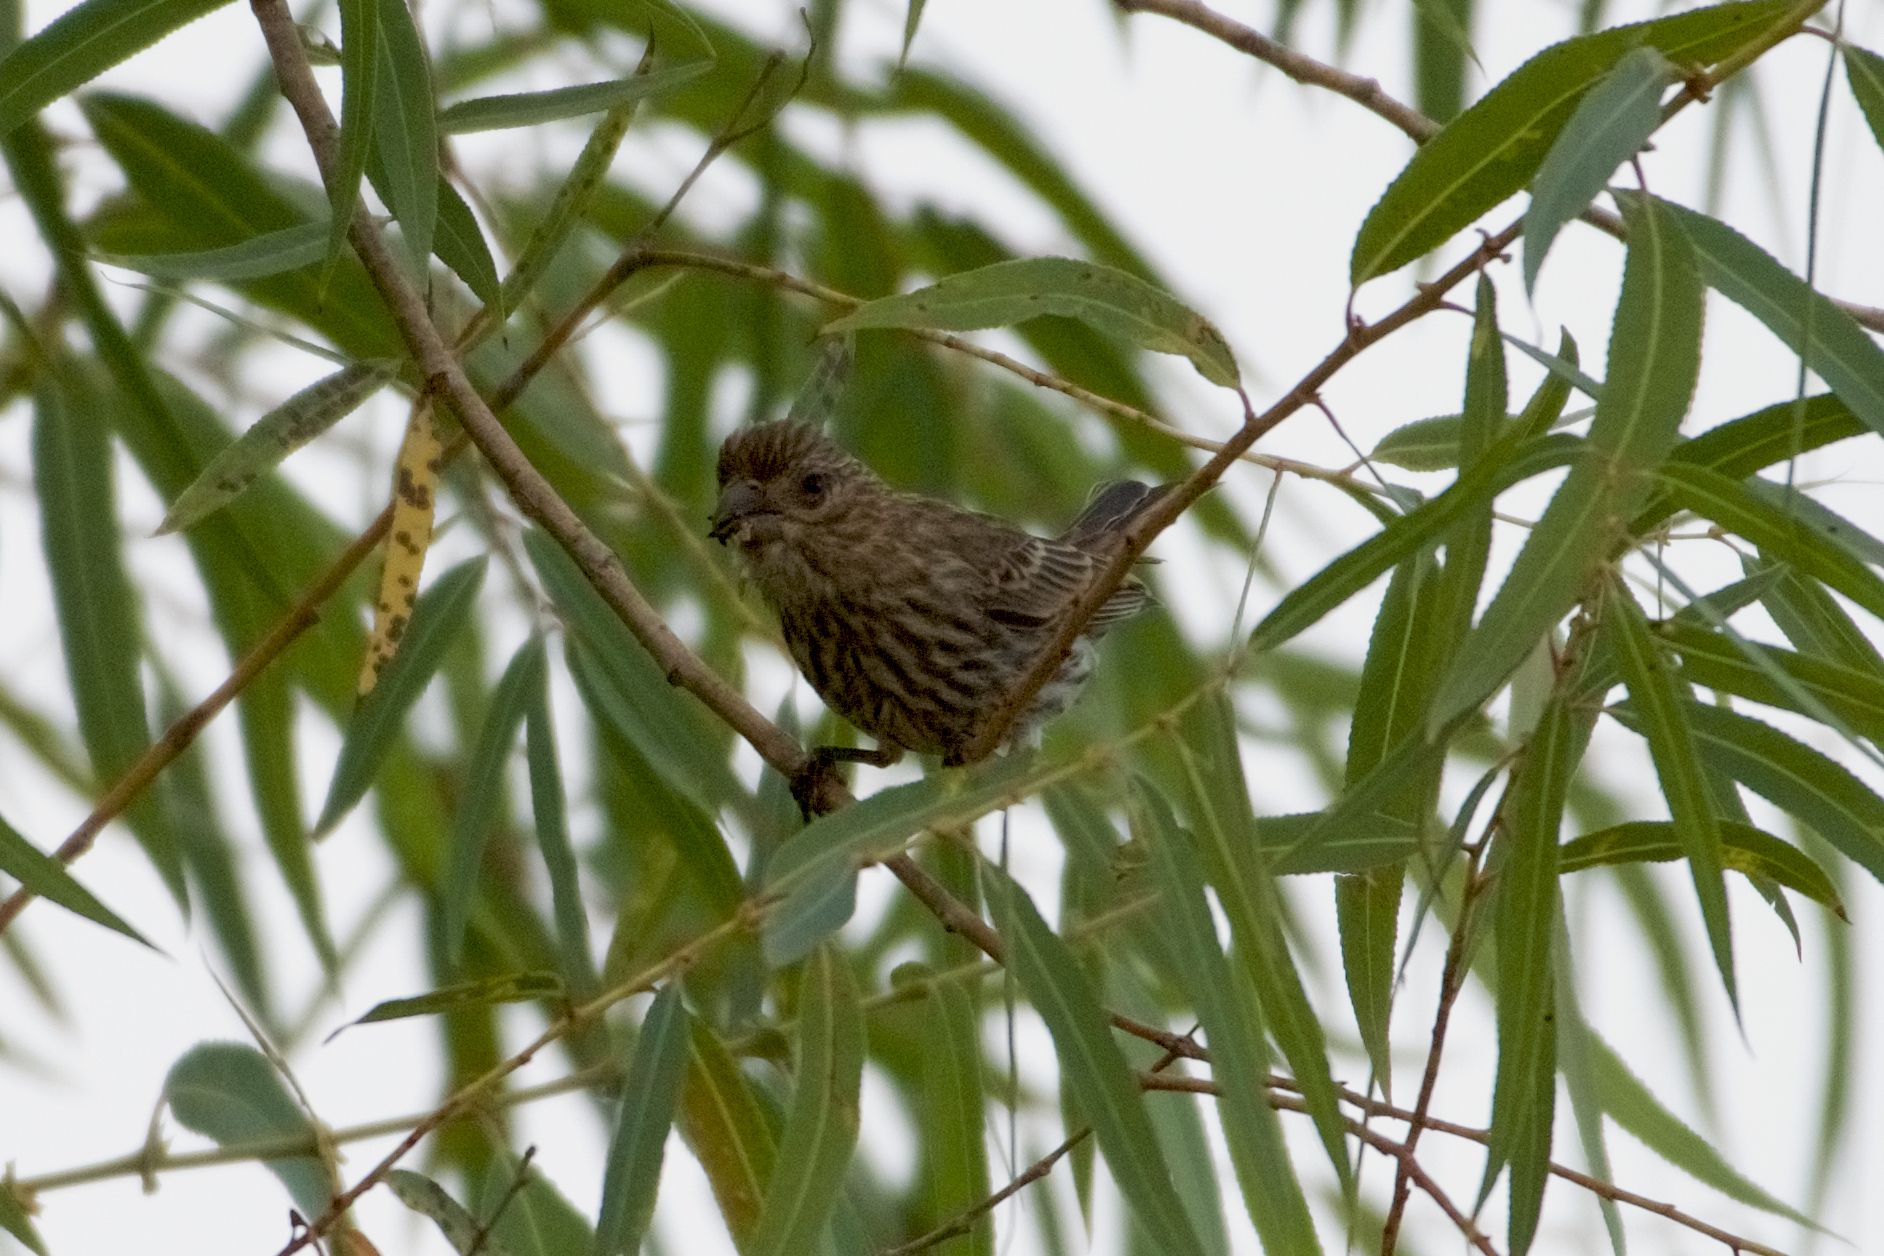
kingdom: Animalia
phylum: Chordata
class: Aves
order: Passeriformes
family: Fringillidae
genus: Haemorhous
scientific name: Haemorhous mexicanus
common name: House finch
